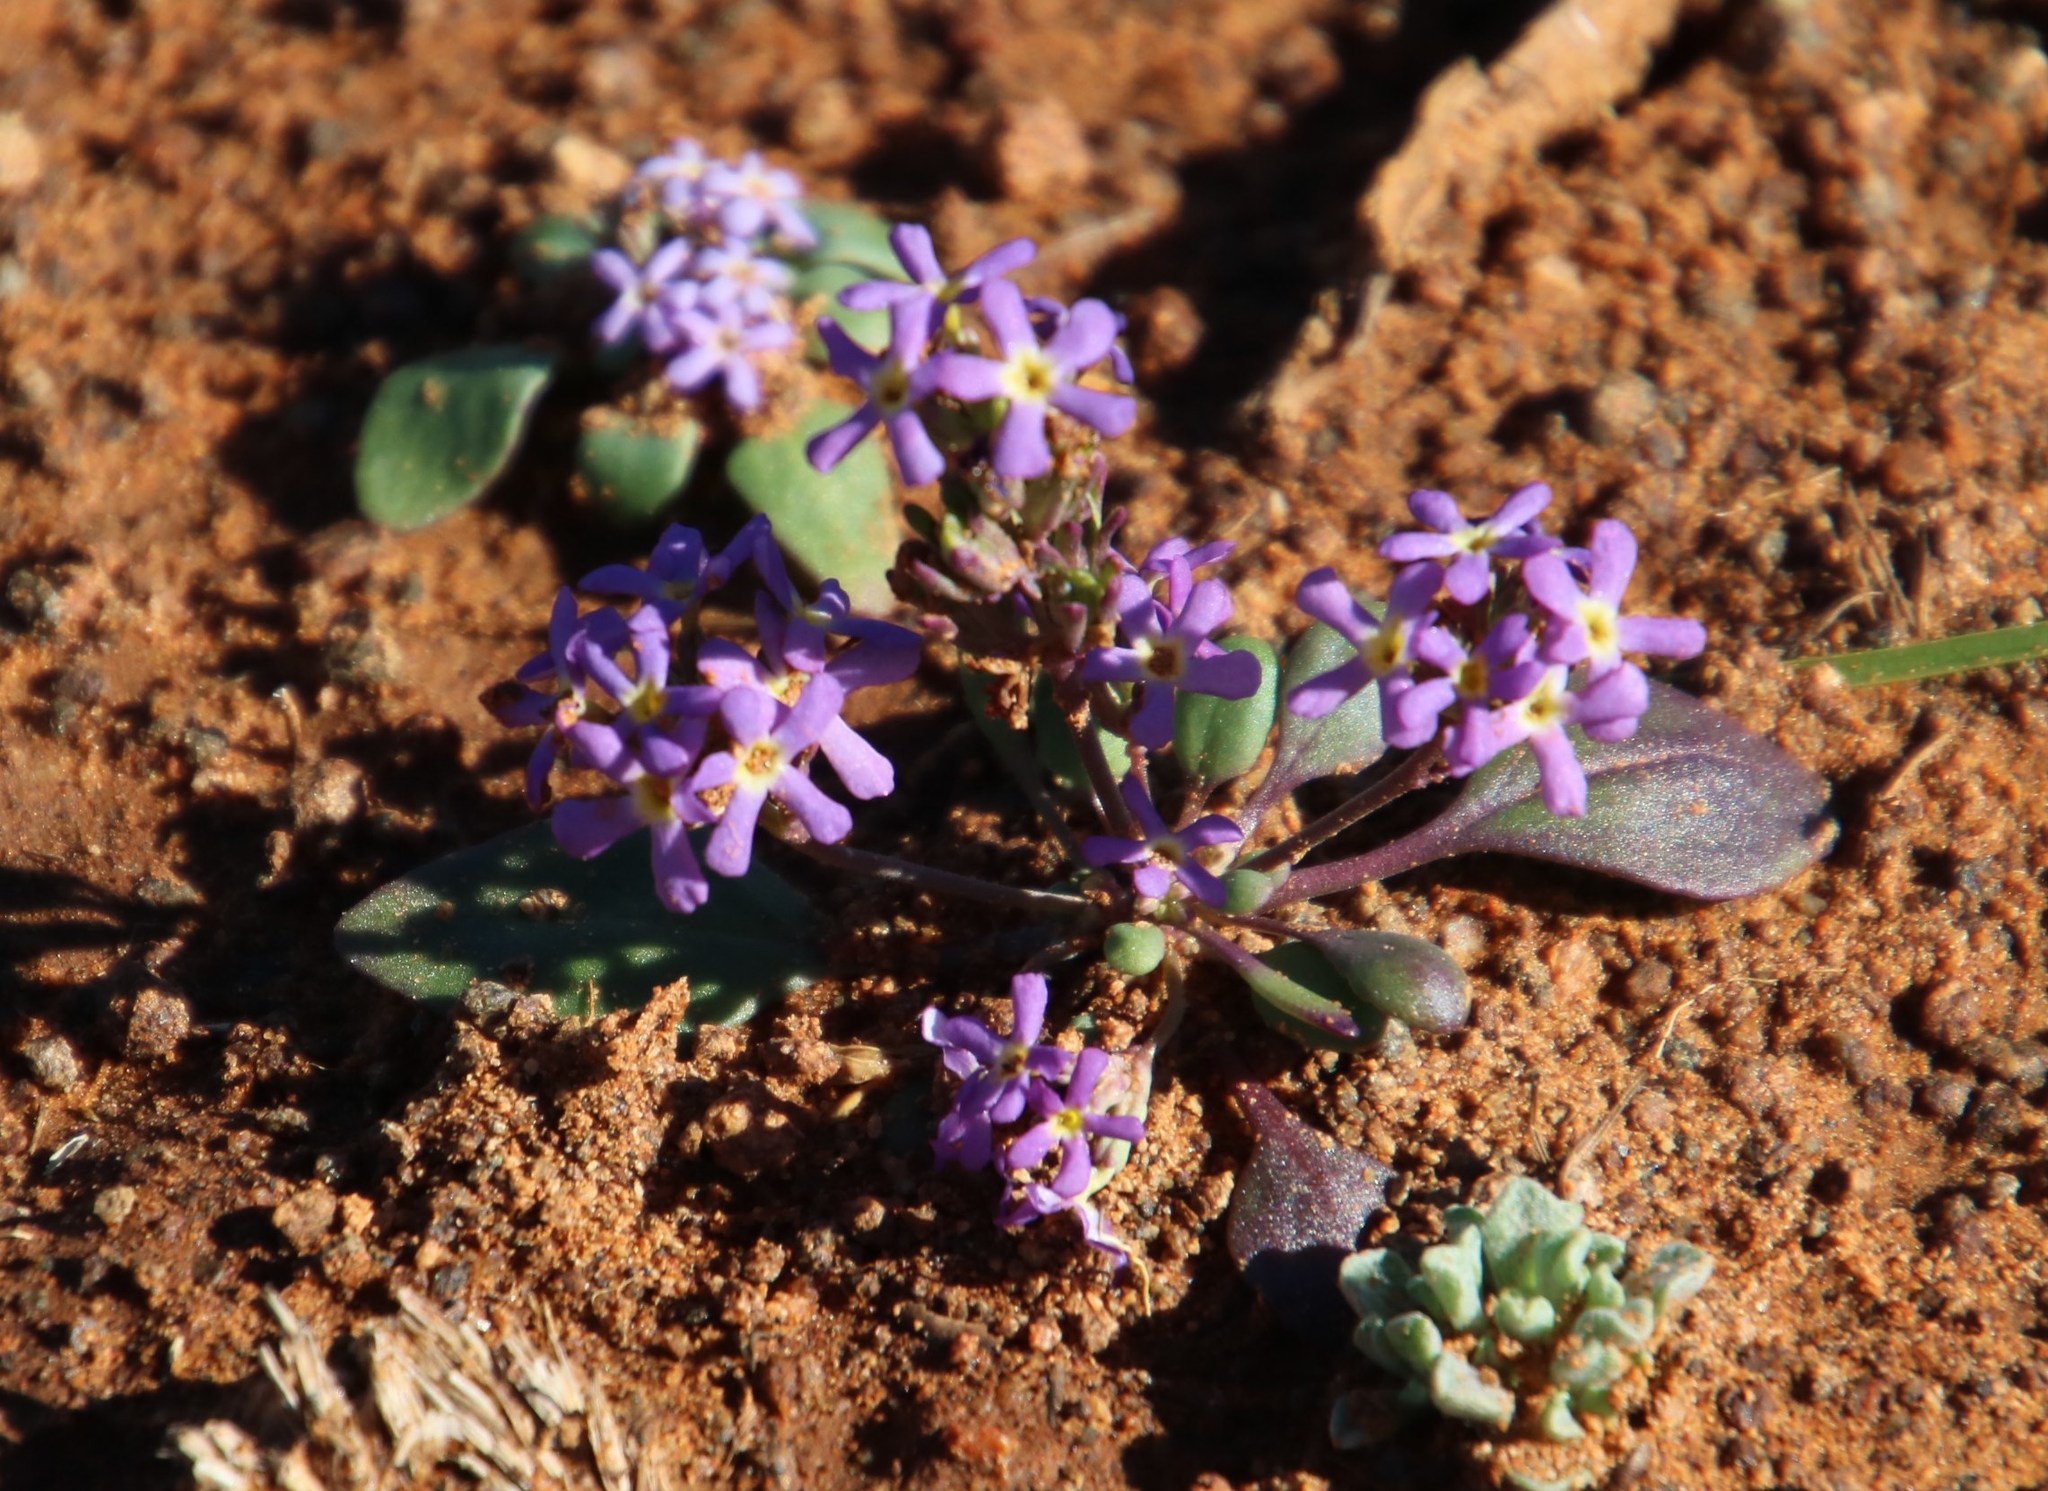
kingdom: Plantae
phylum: Tracheophyta
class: Magnoliopsida
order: Lamiales
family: Scrophulariaceae
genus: Manulea
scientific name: Manulea fragrans
